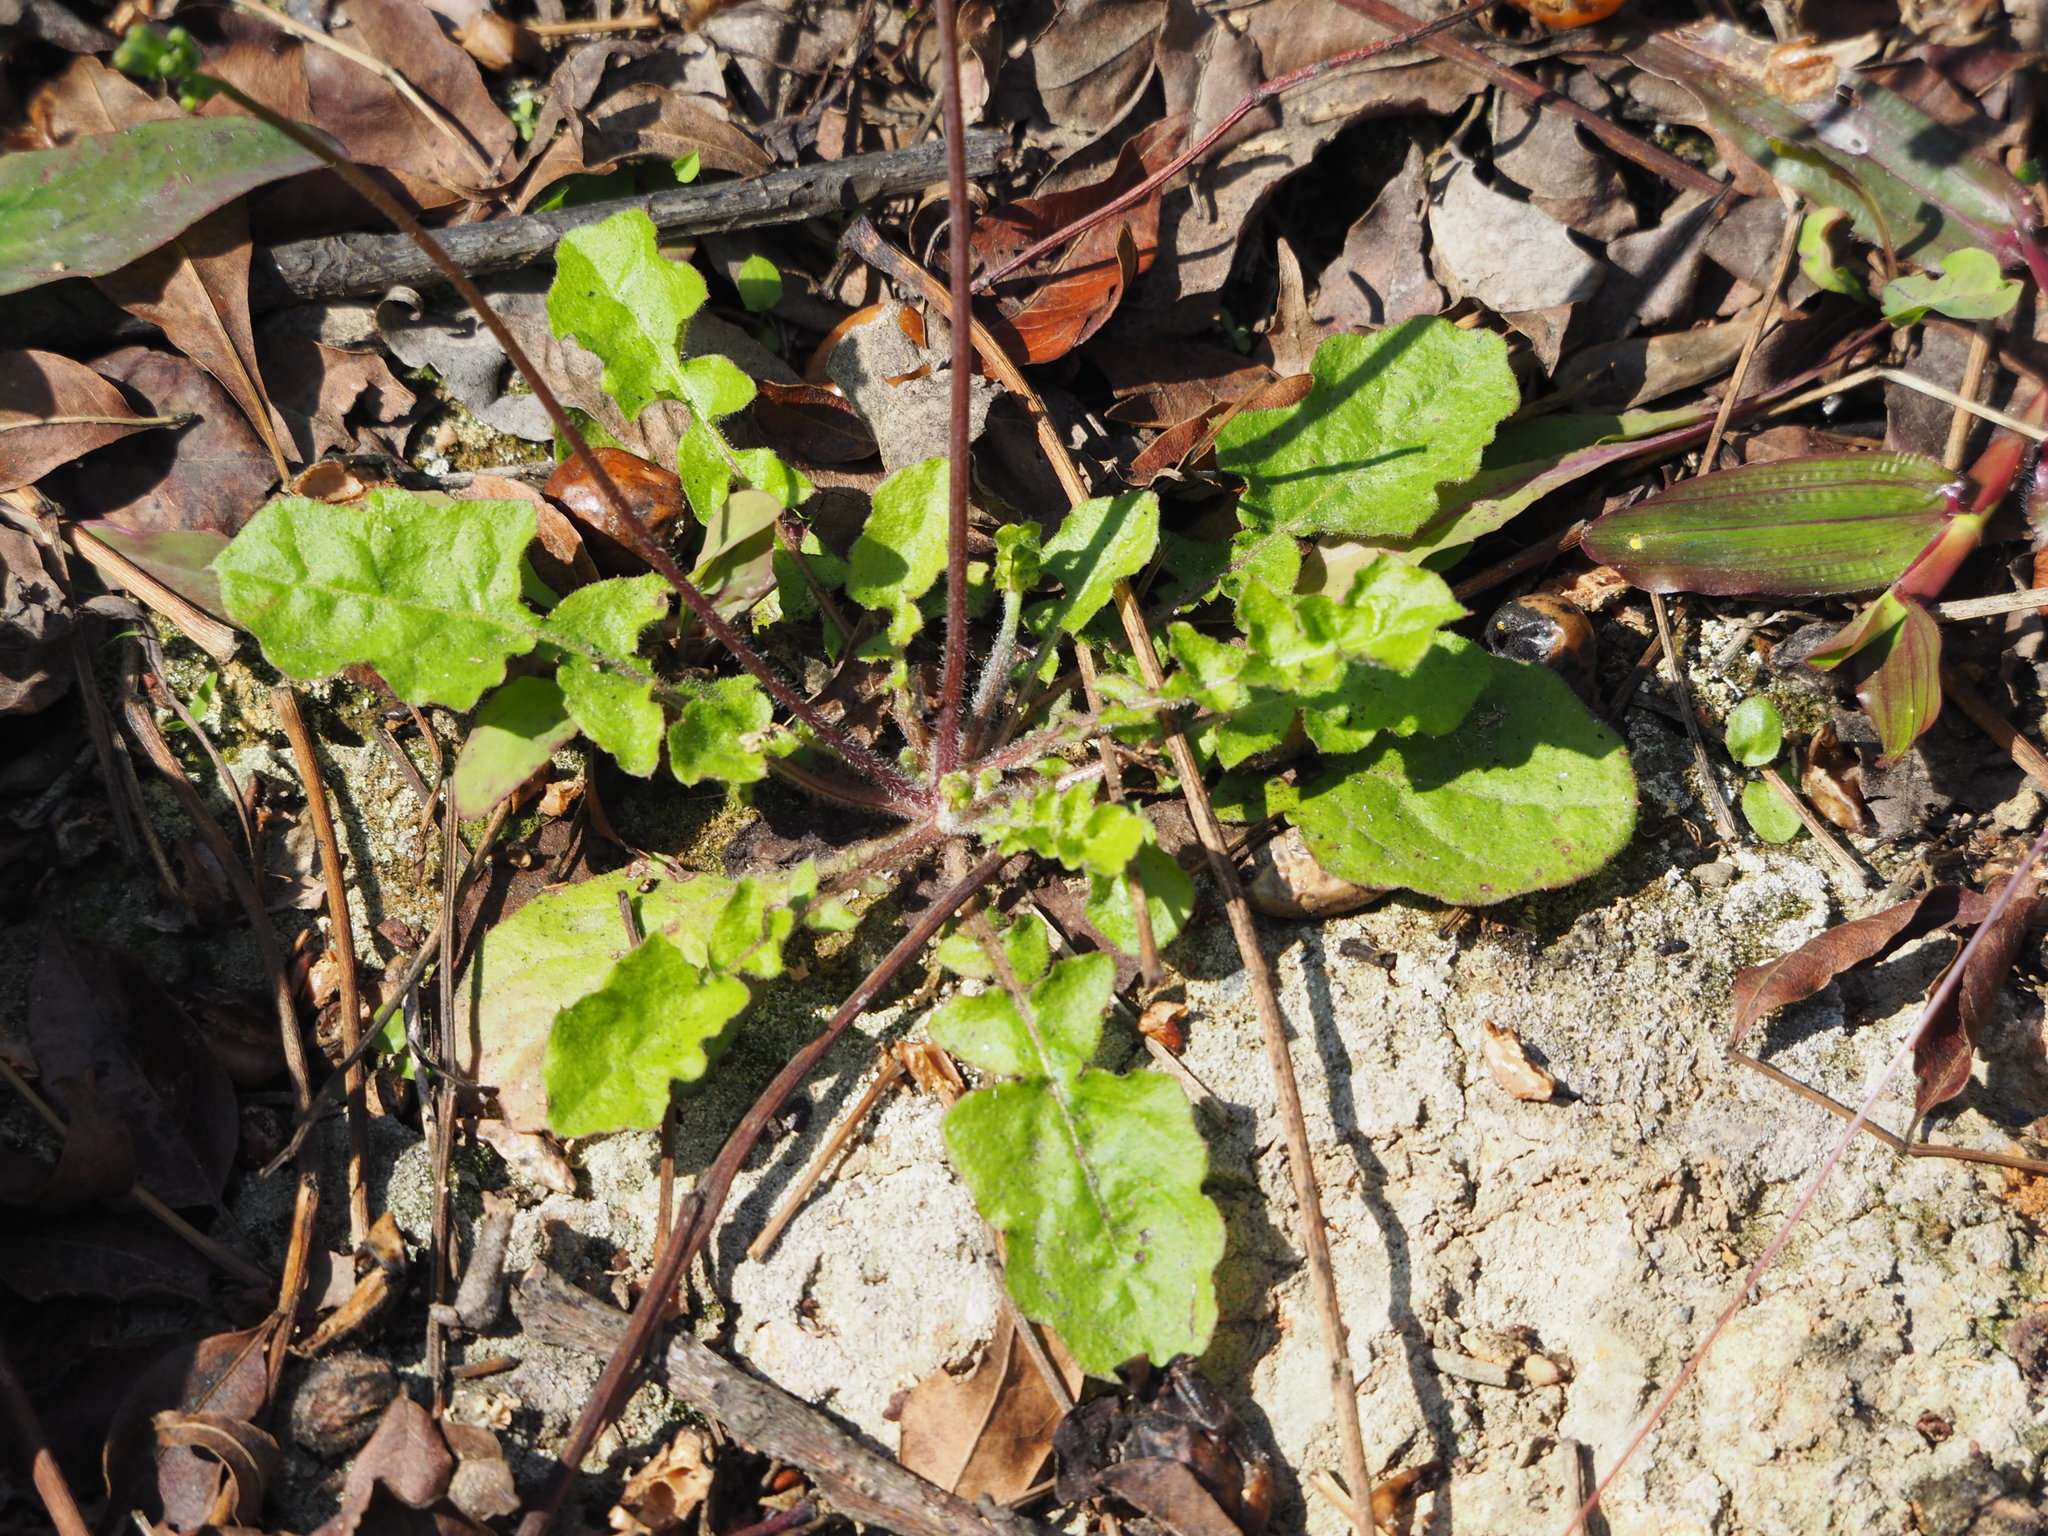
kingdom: Plantae
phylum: Tracheophyta
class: Magnoliopsida
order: Asterales
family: Asteraceae
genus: Youngia
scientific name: Youngia japonica
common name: Oriental false hawksbeard
